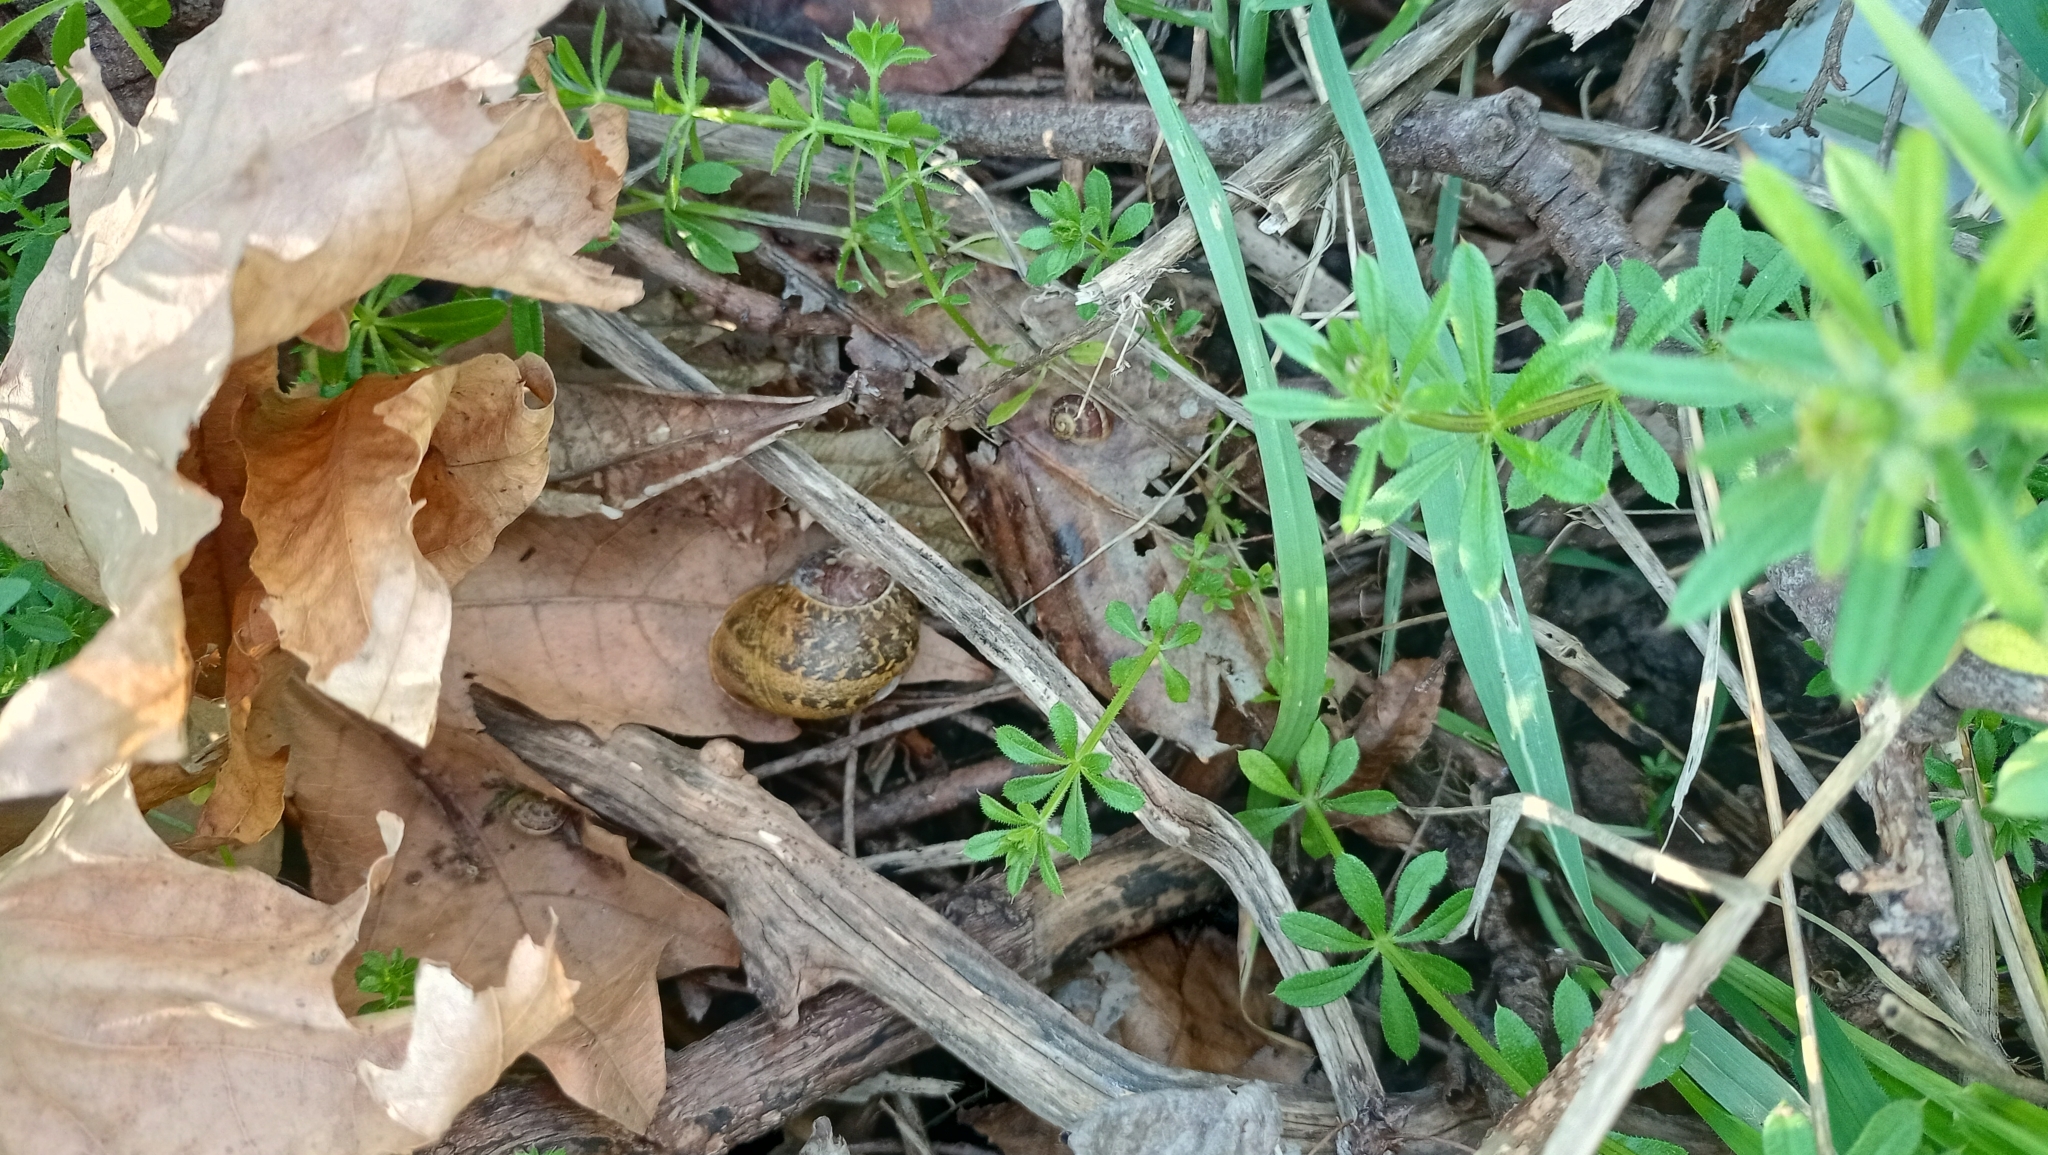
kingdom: Animalia
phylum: Mollusca
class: Gastropoda
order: Stylommatophora
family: Helicidae
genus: Cornu
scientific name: Cornu aspersum
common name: Brown garden snail
